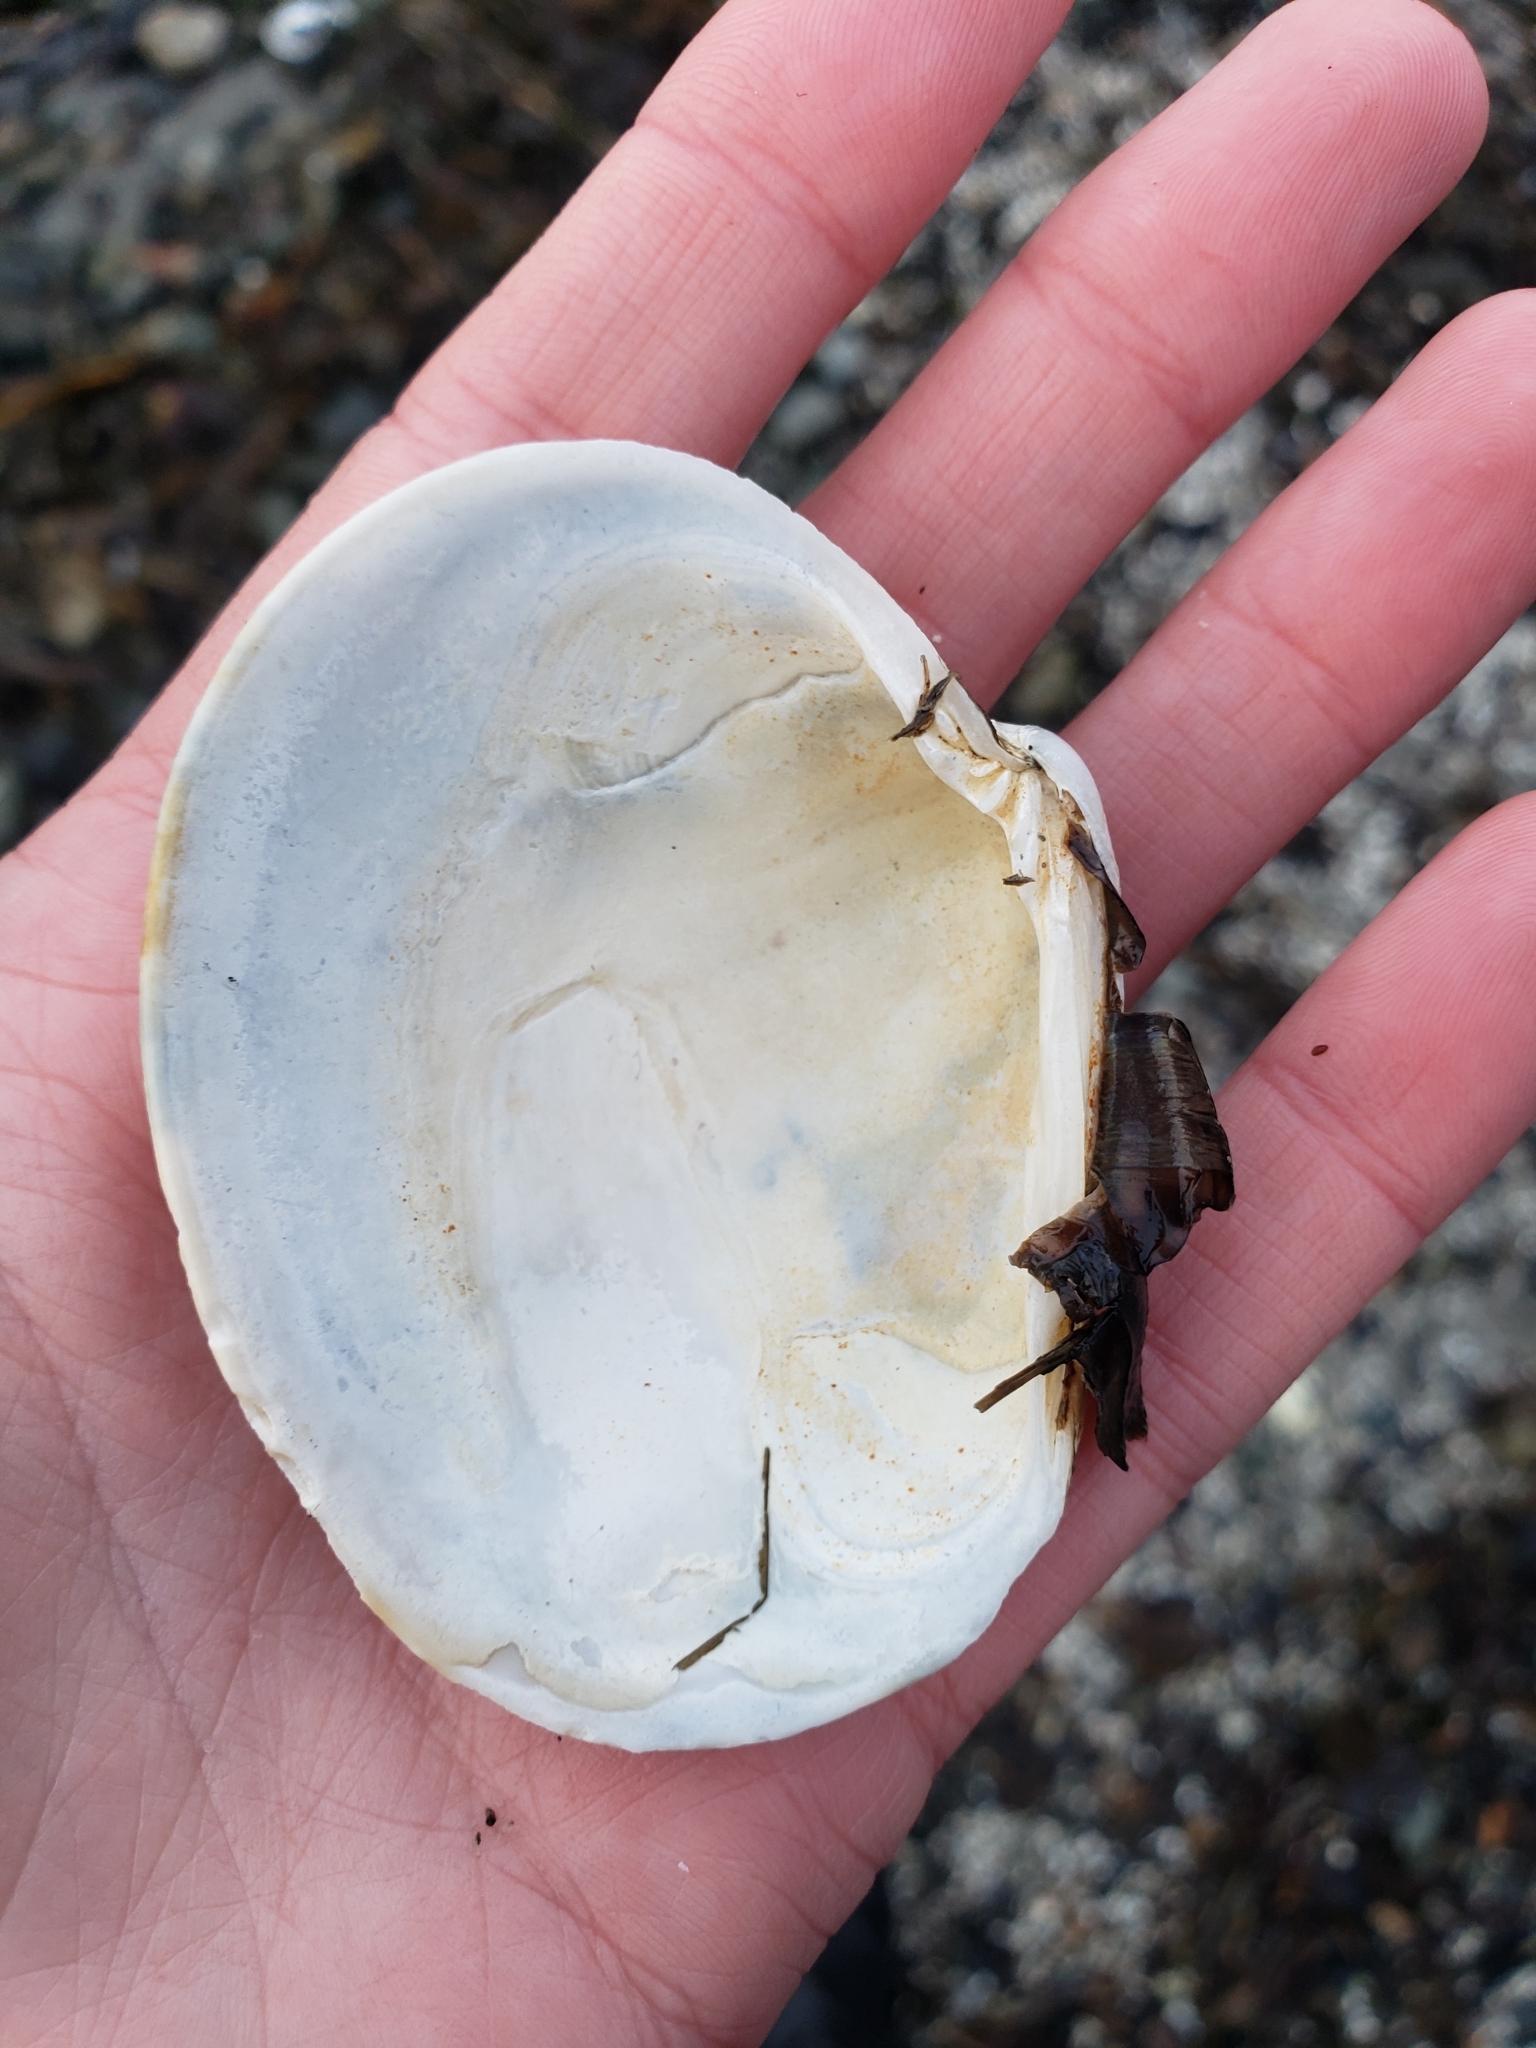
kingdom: Animalia
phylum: Mollusca
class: Bivalvia
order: Venerida
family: Veneridae
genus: Saxidomus
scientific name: Saxidomus gigantea
